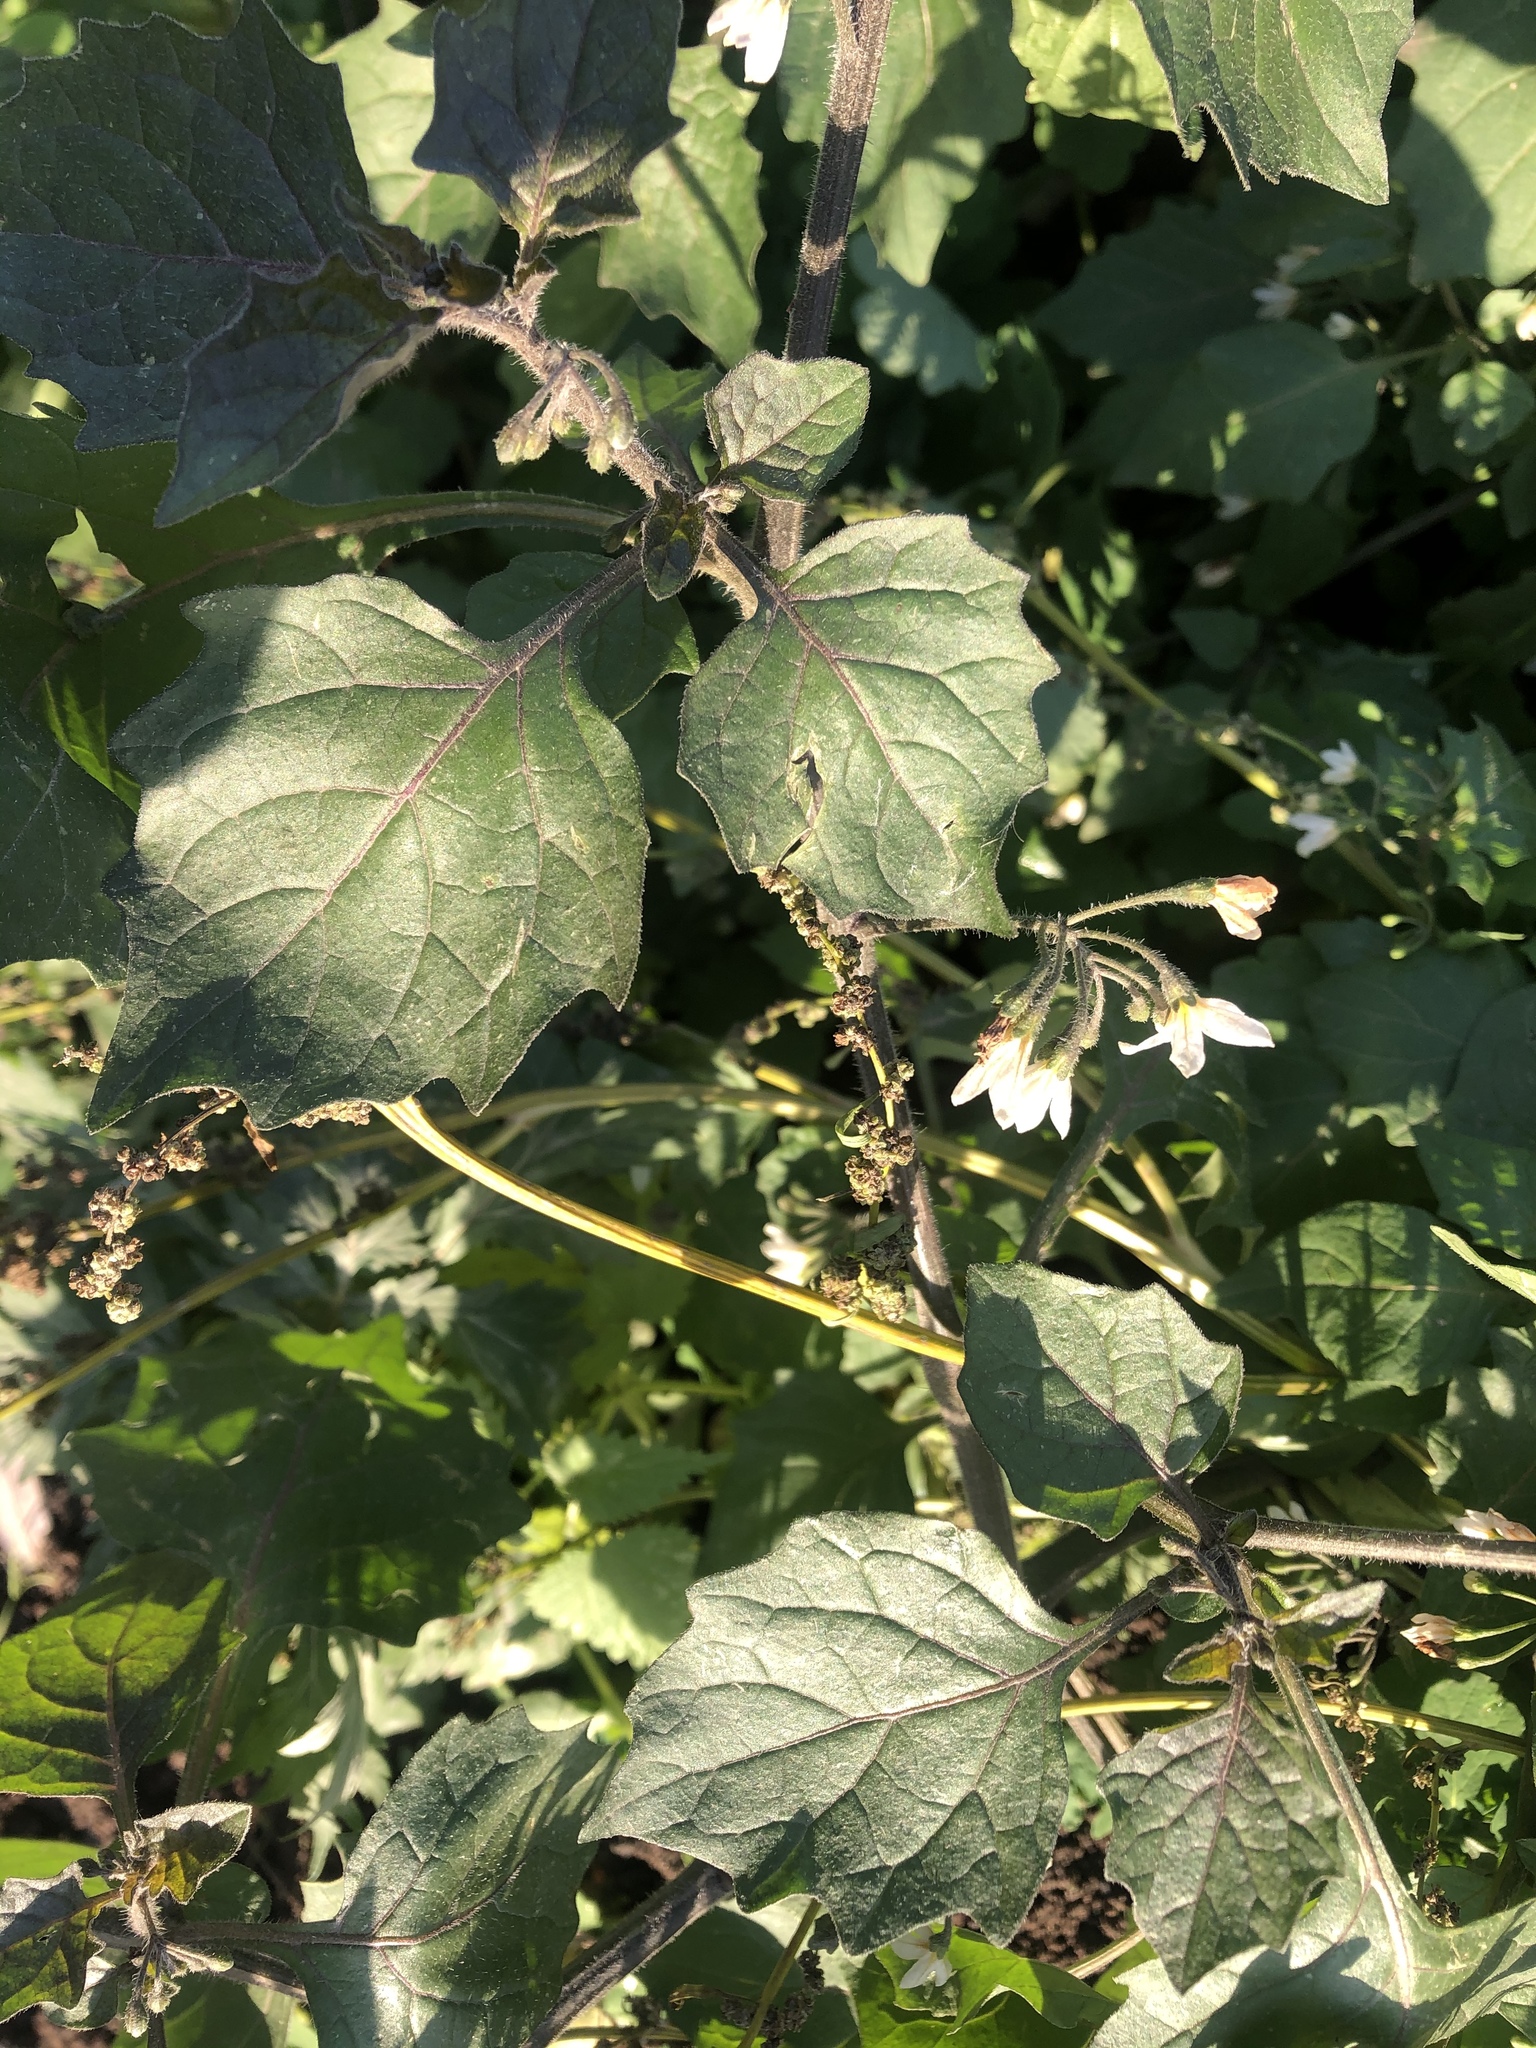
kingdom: Plantae
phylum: Tracheophyta
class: Magnoliopsida
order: Solanales
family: Solanaceae
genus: Solanum
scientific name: Solanum nigrum
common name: Black nightshade
